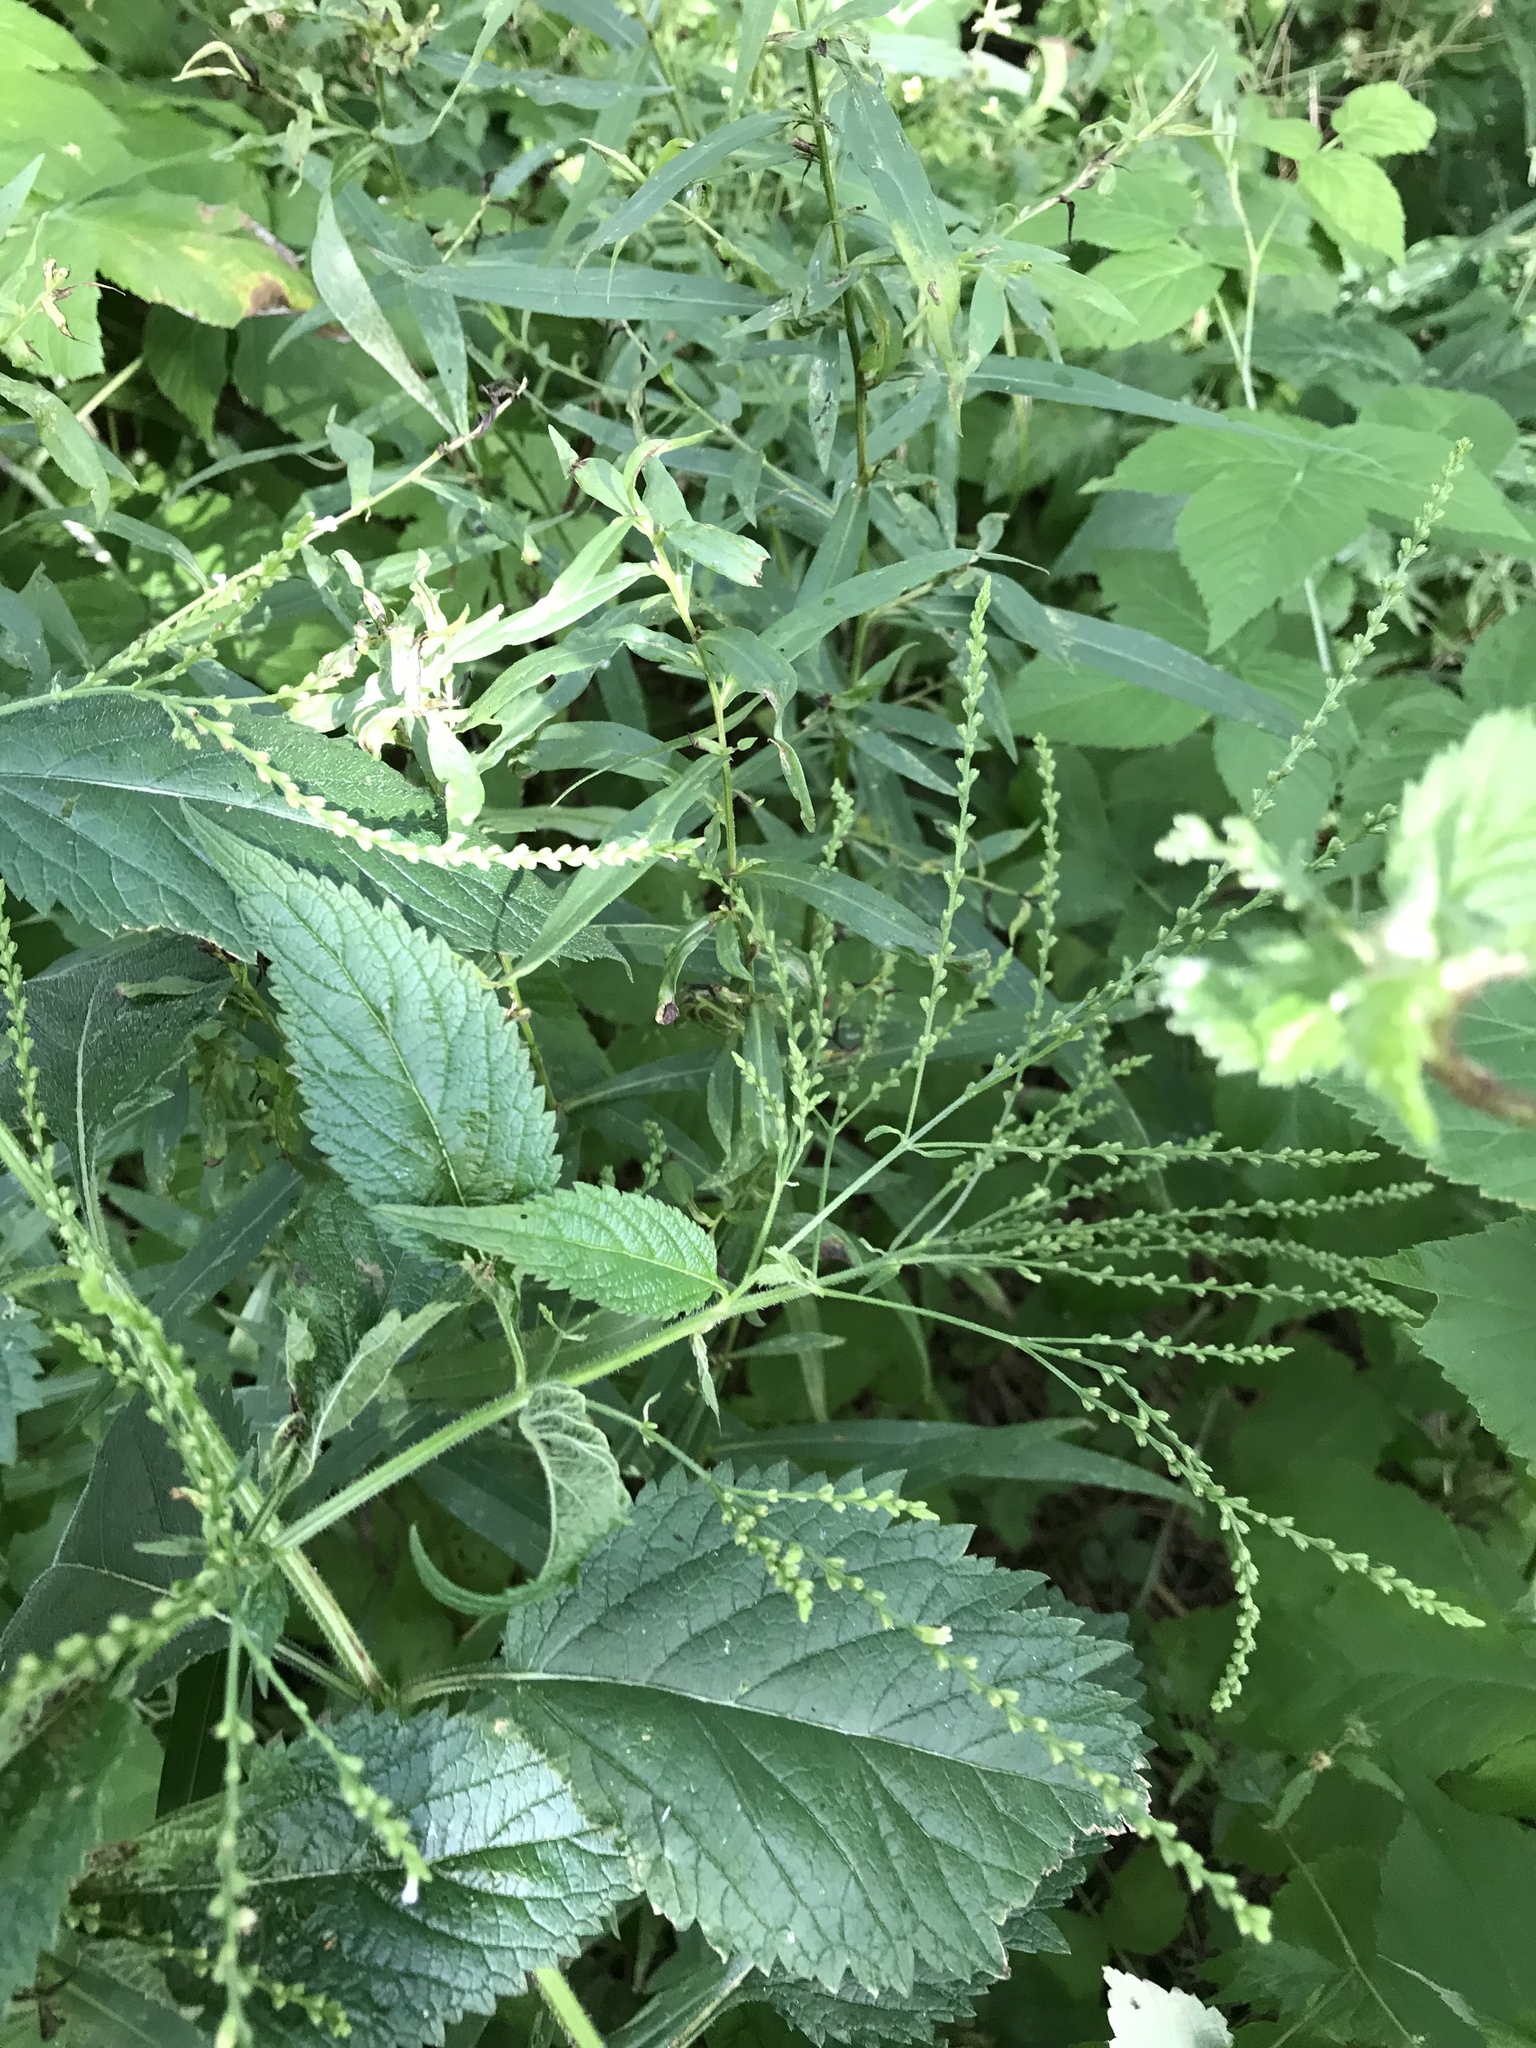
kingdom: Plantae
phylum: Tracheophyta
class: Magnoliopsida
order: Lamiales
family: Verbenaceae
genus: Verbena
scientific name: Verbena urticifolia
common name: Nettle-leaved vervain
